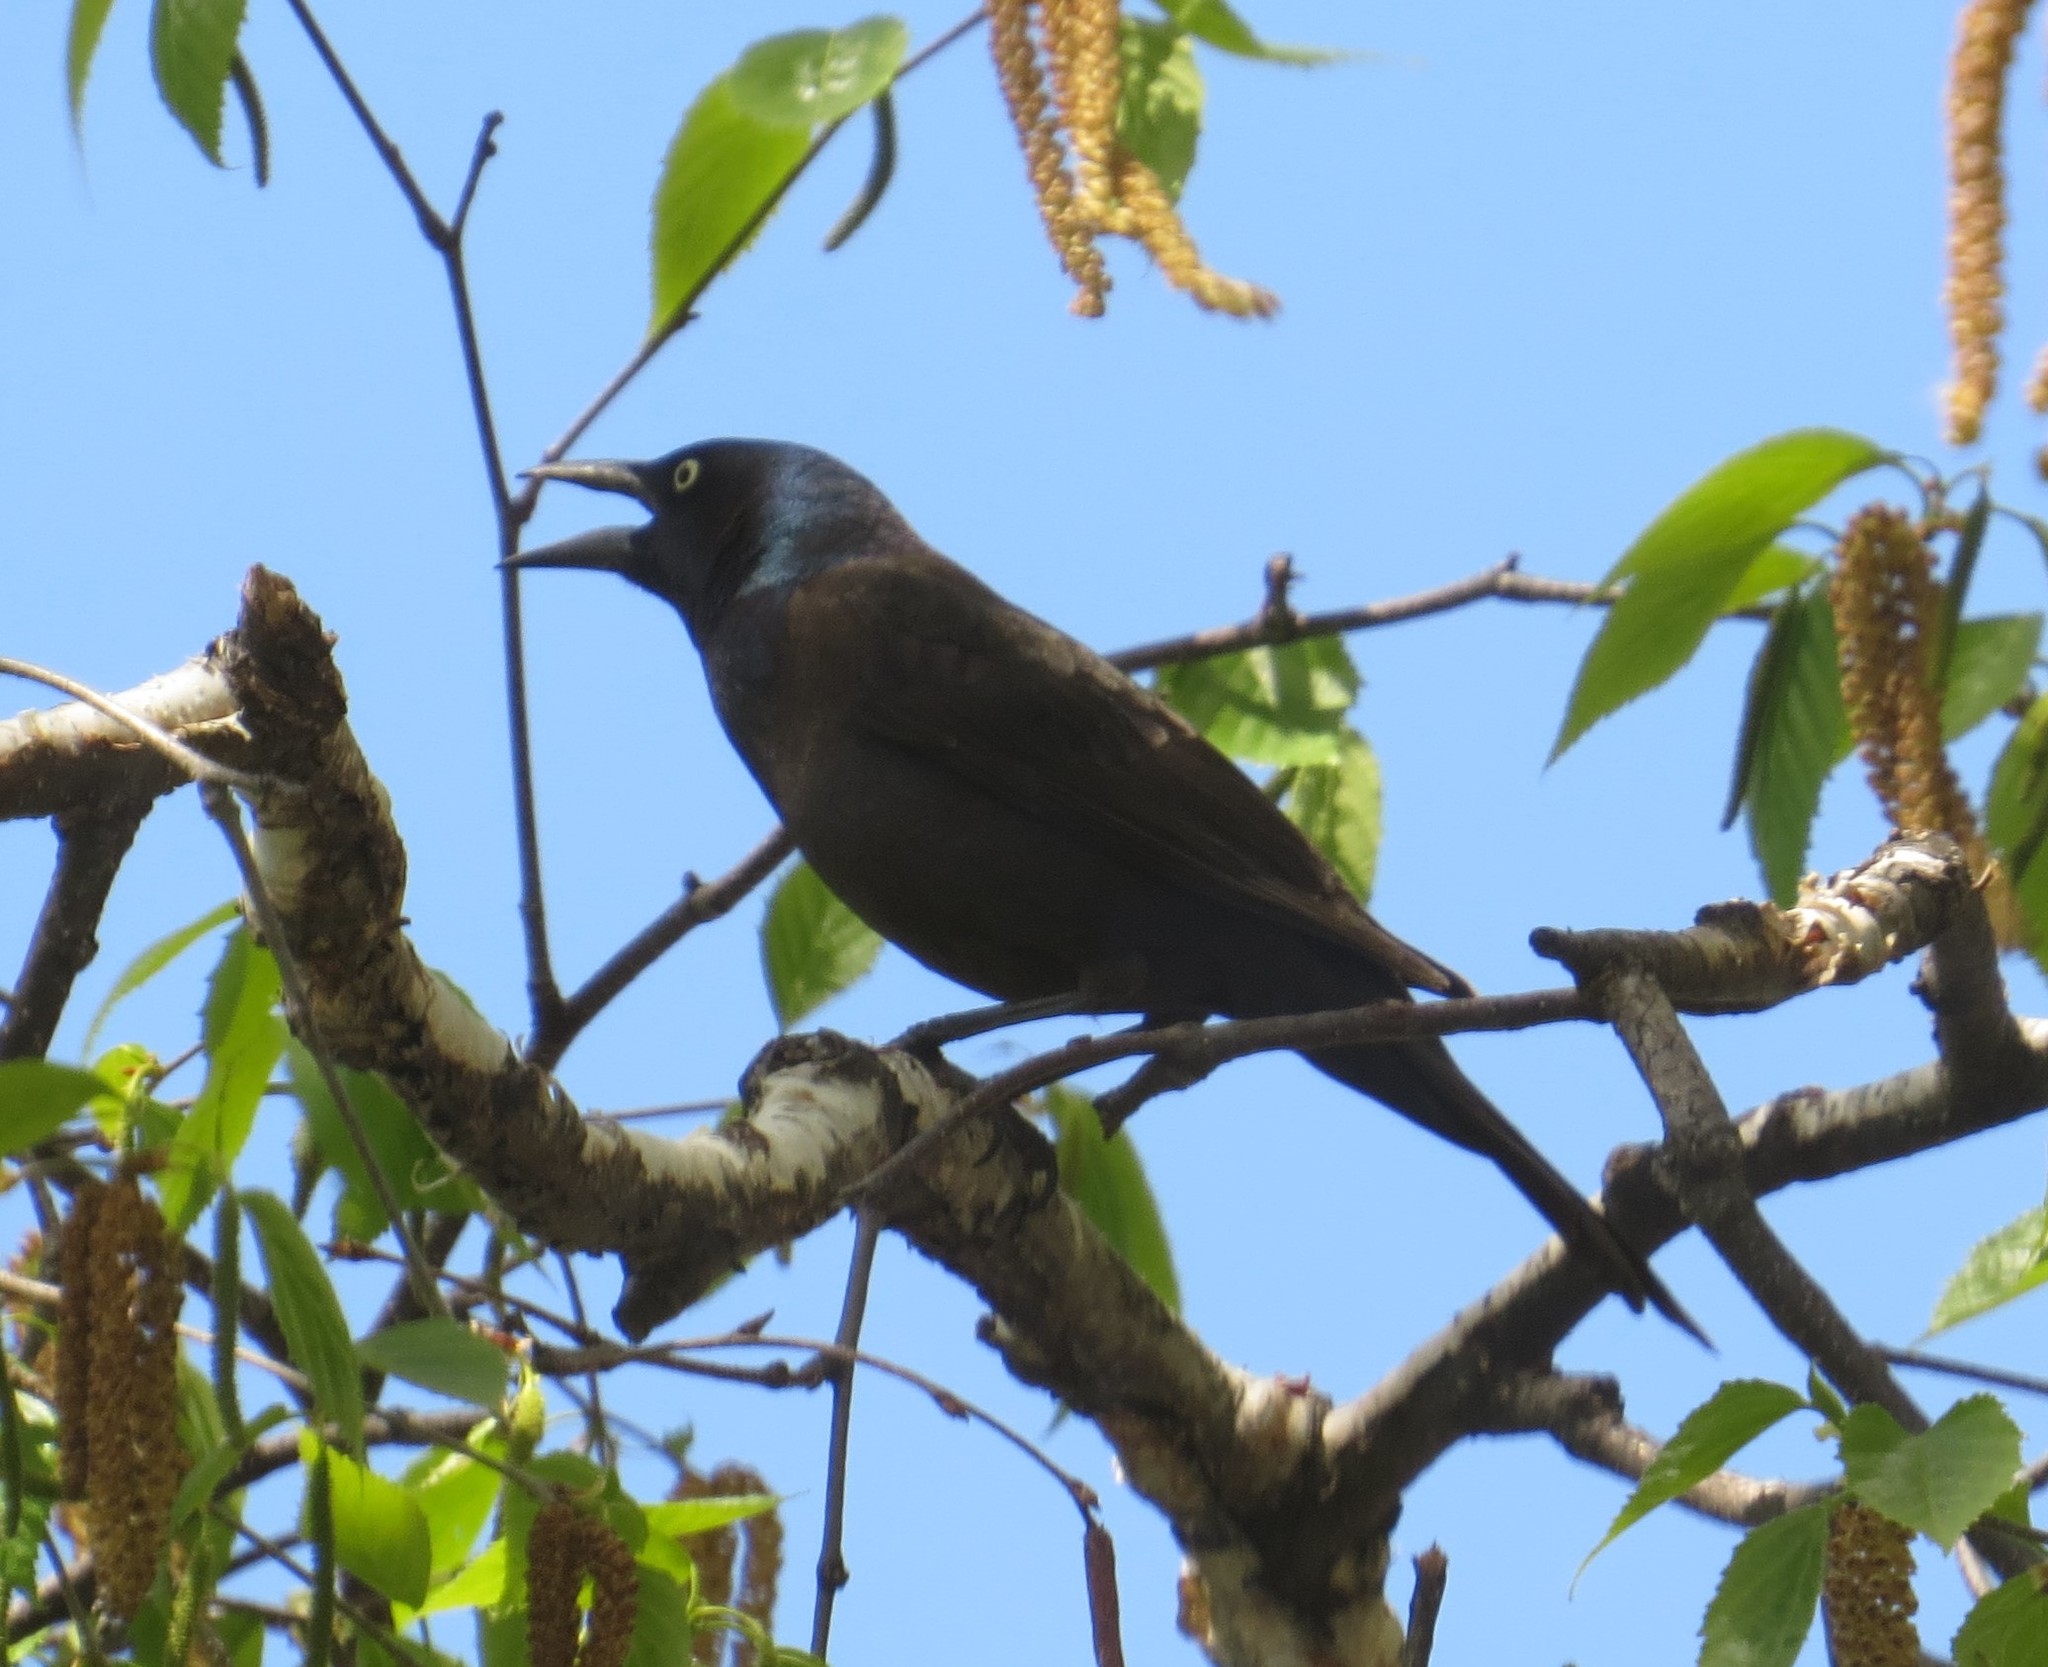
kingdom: Animalia
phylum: Chordata
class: Aves
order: Passeriformes
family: Icteridae
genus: Quiscalus
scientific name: Quiscalus quiscula
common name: Common grackle
